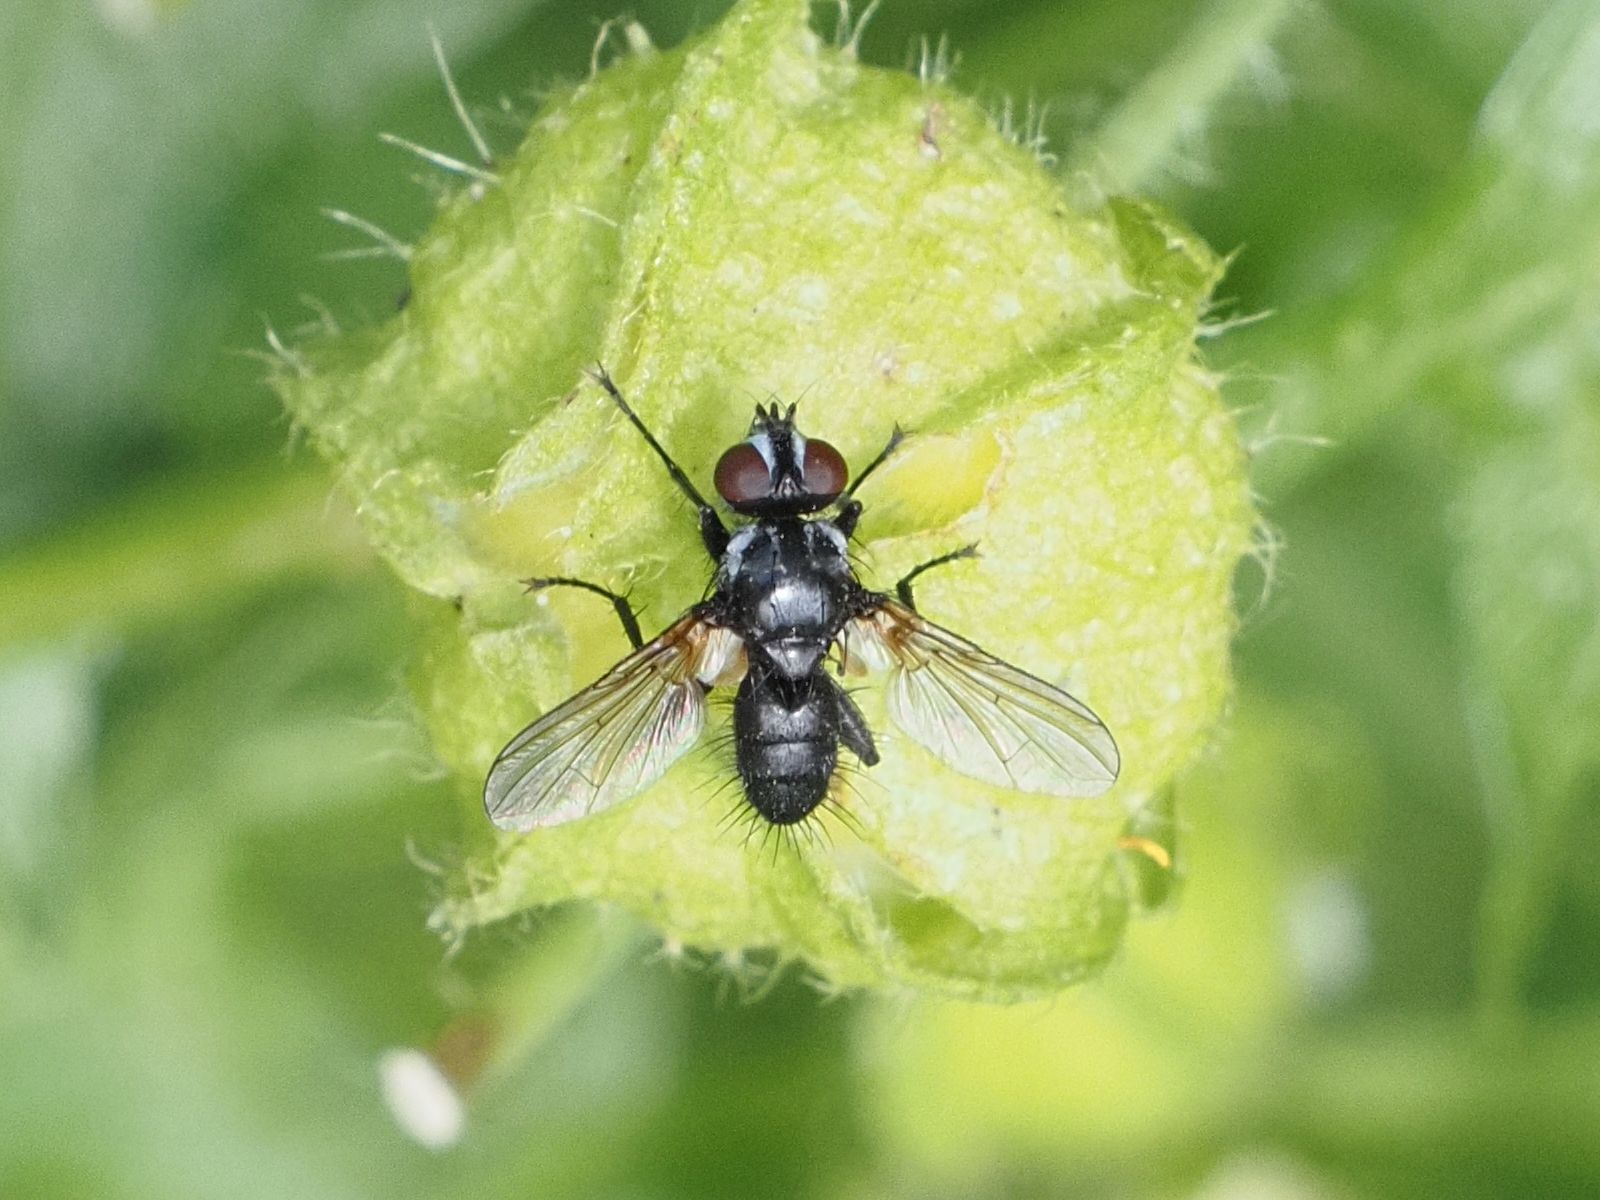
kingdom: Animalia
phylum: Arthropoda
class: Insecta
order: Diptera
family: Tachinidae
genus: Phania
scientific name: Phania funesta
